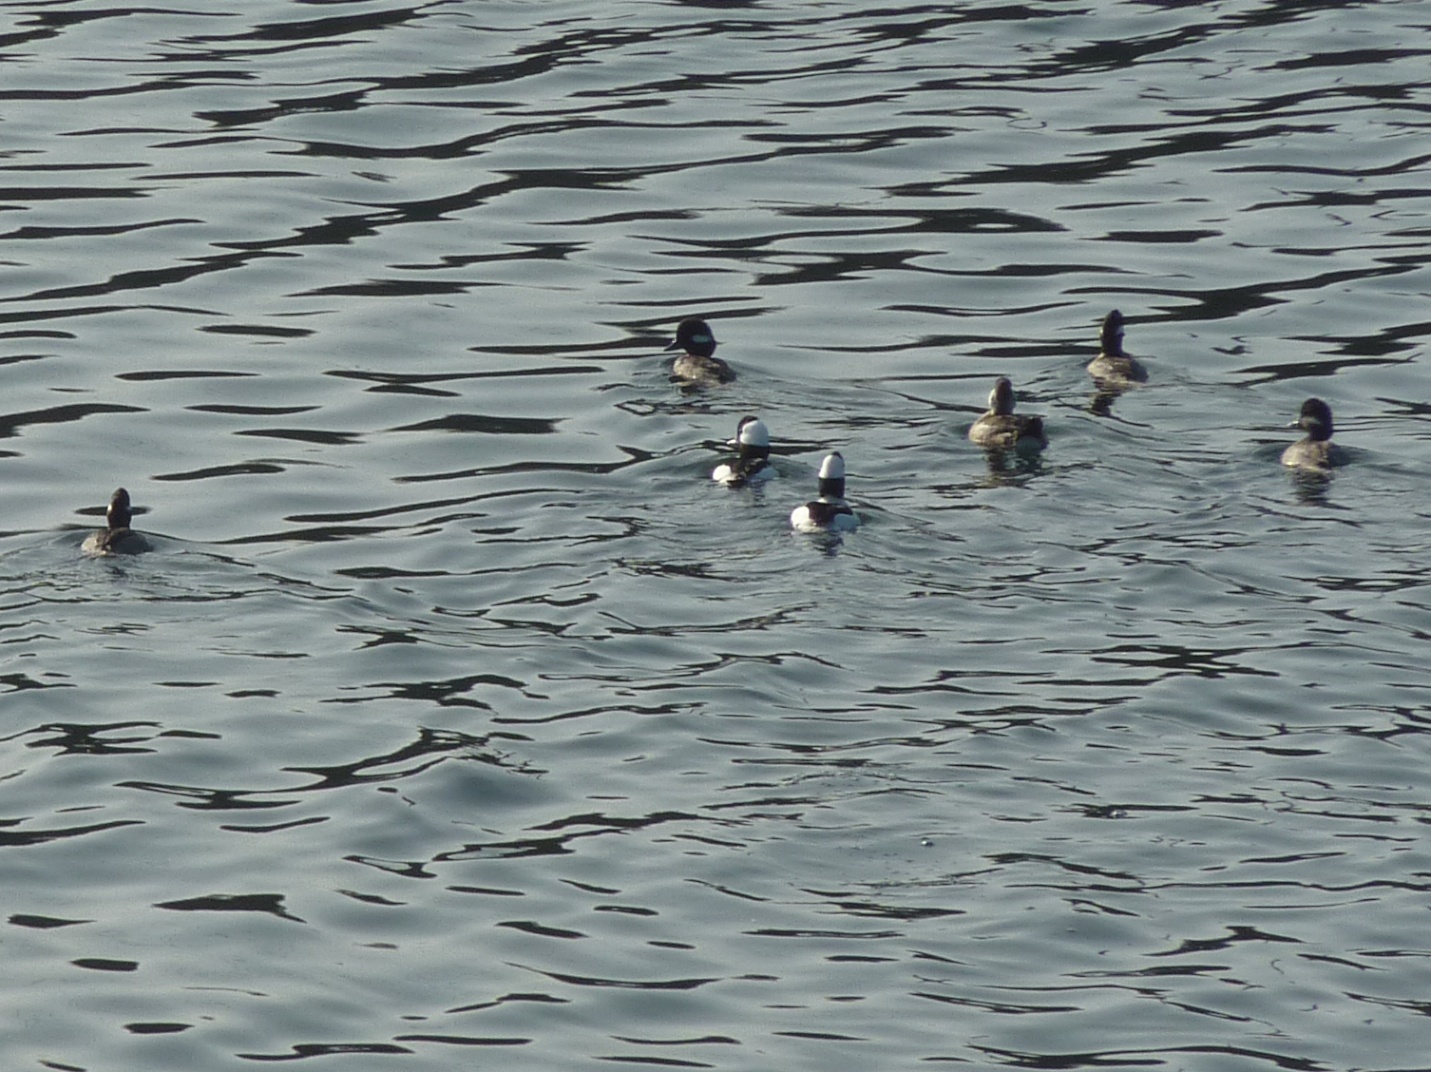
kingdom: Animalia
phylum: Chordata
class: Aves
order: Anseriformes
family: Anatidae
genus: Bucephala
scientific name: Bucephala albeola
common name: Bufflehead
